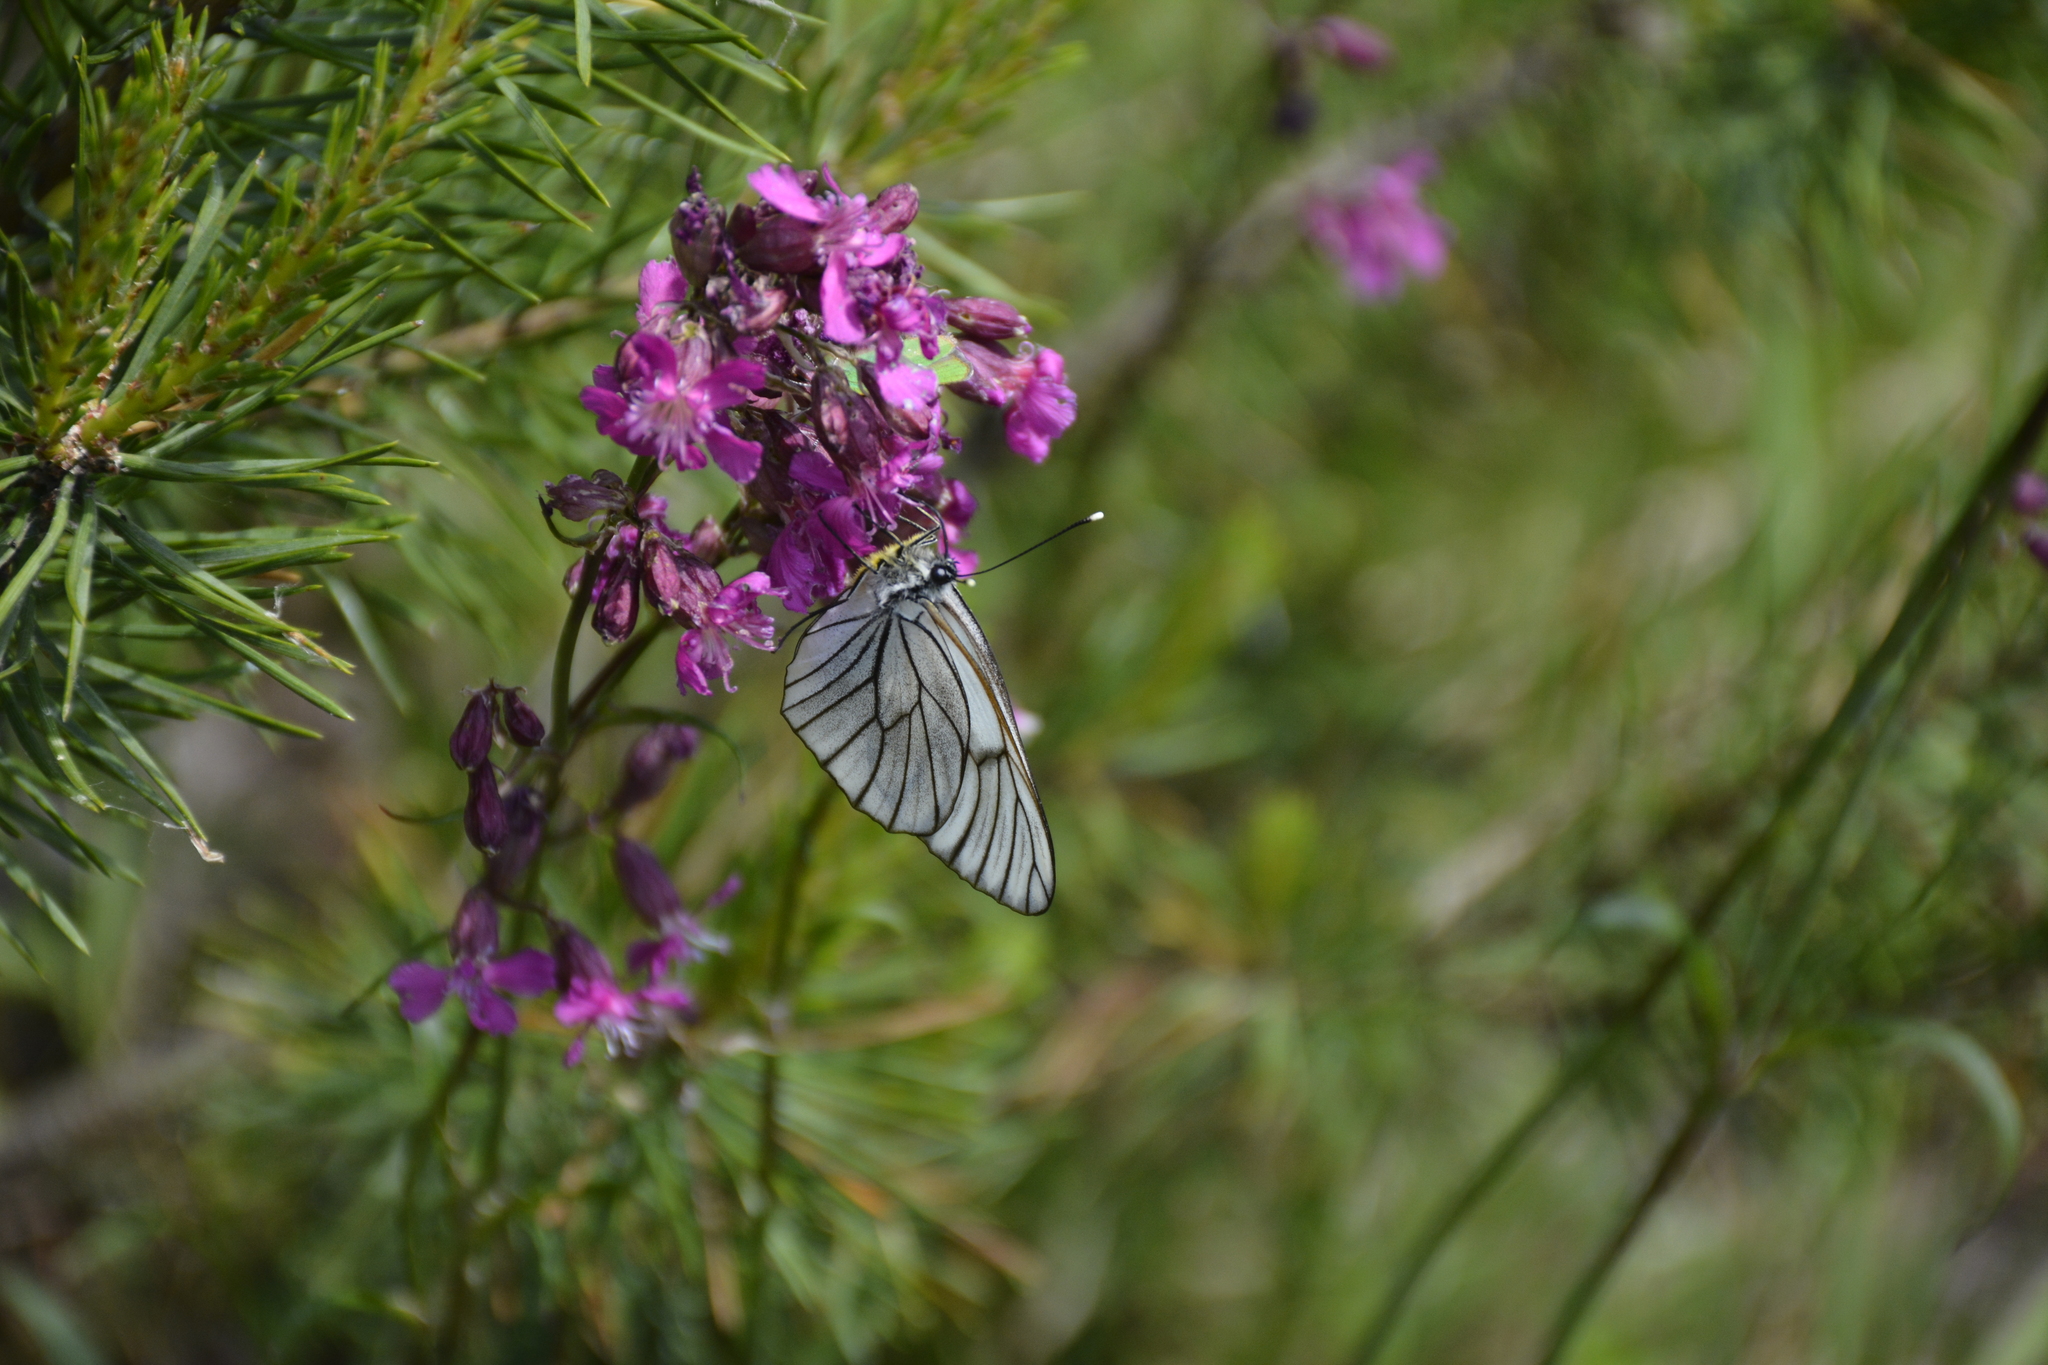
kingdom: Animalia
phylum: Arthropoda
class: Insecta
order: Lepidoptera
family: Pieridae
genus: Aporia
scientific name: Aporia crataegi
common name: Black-veined white
